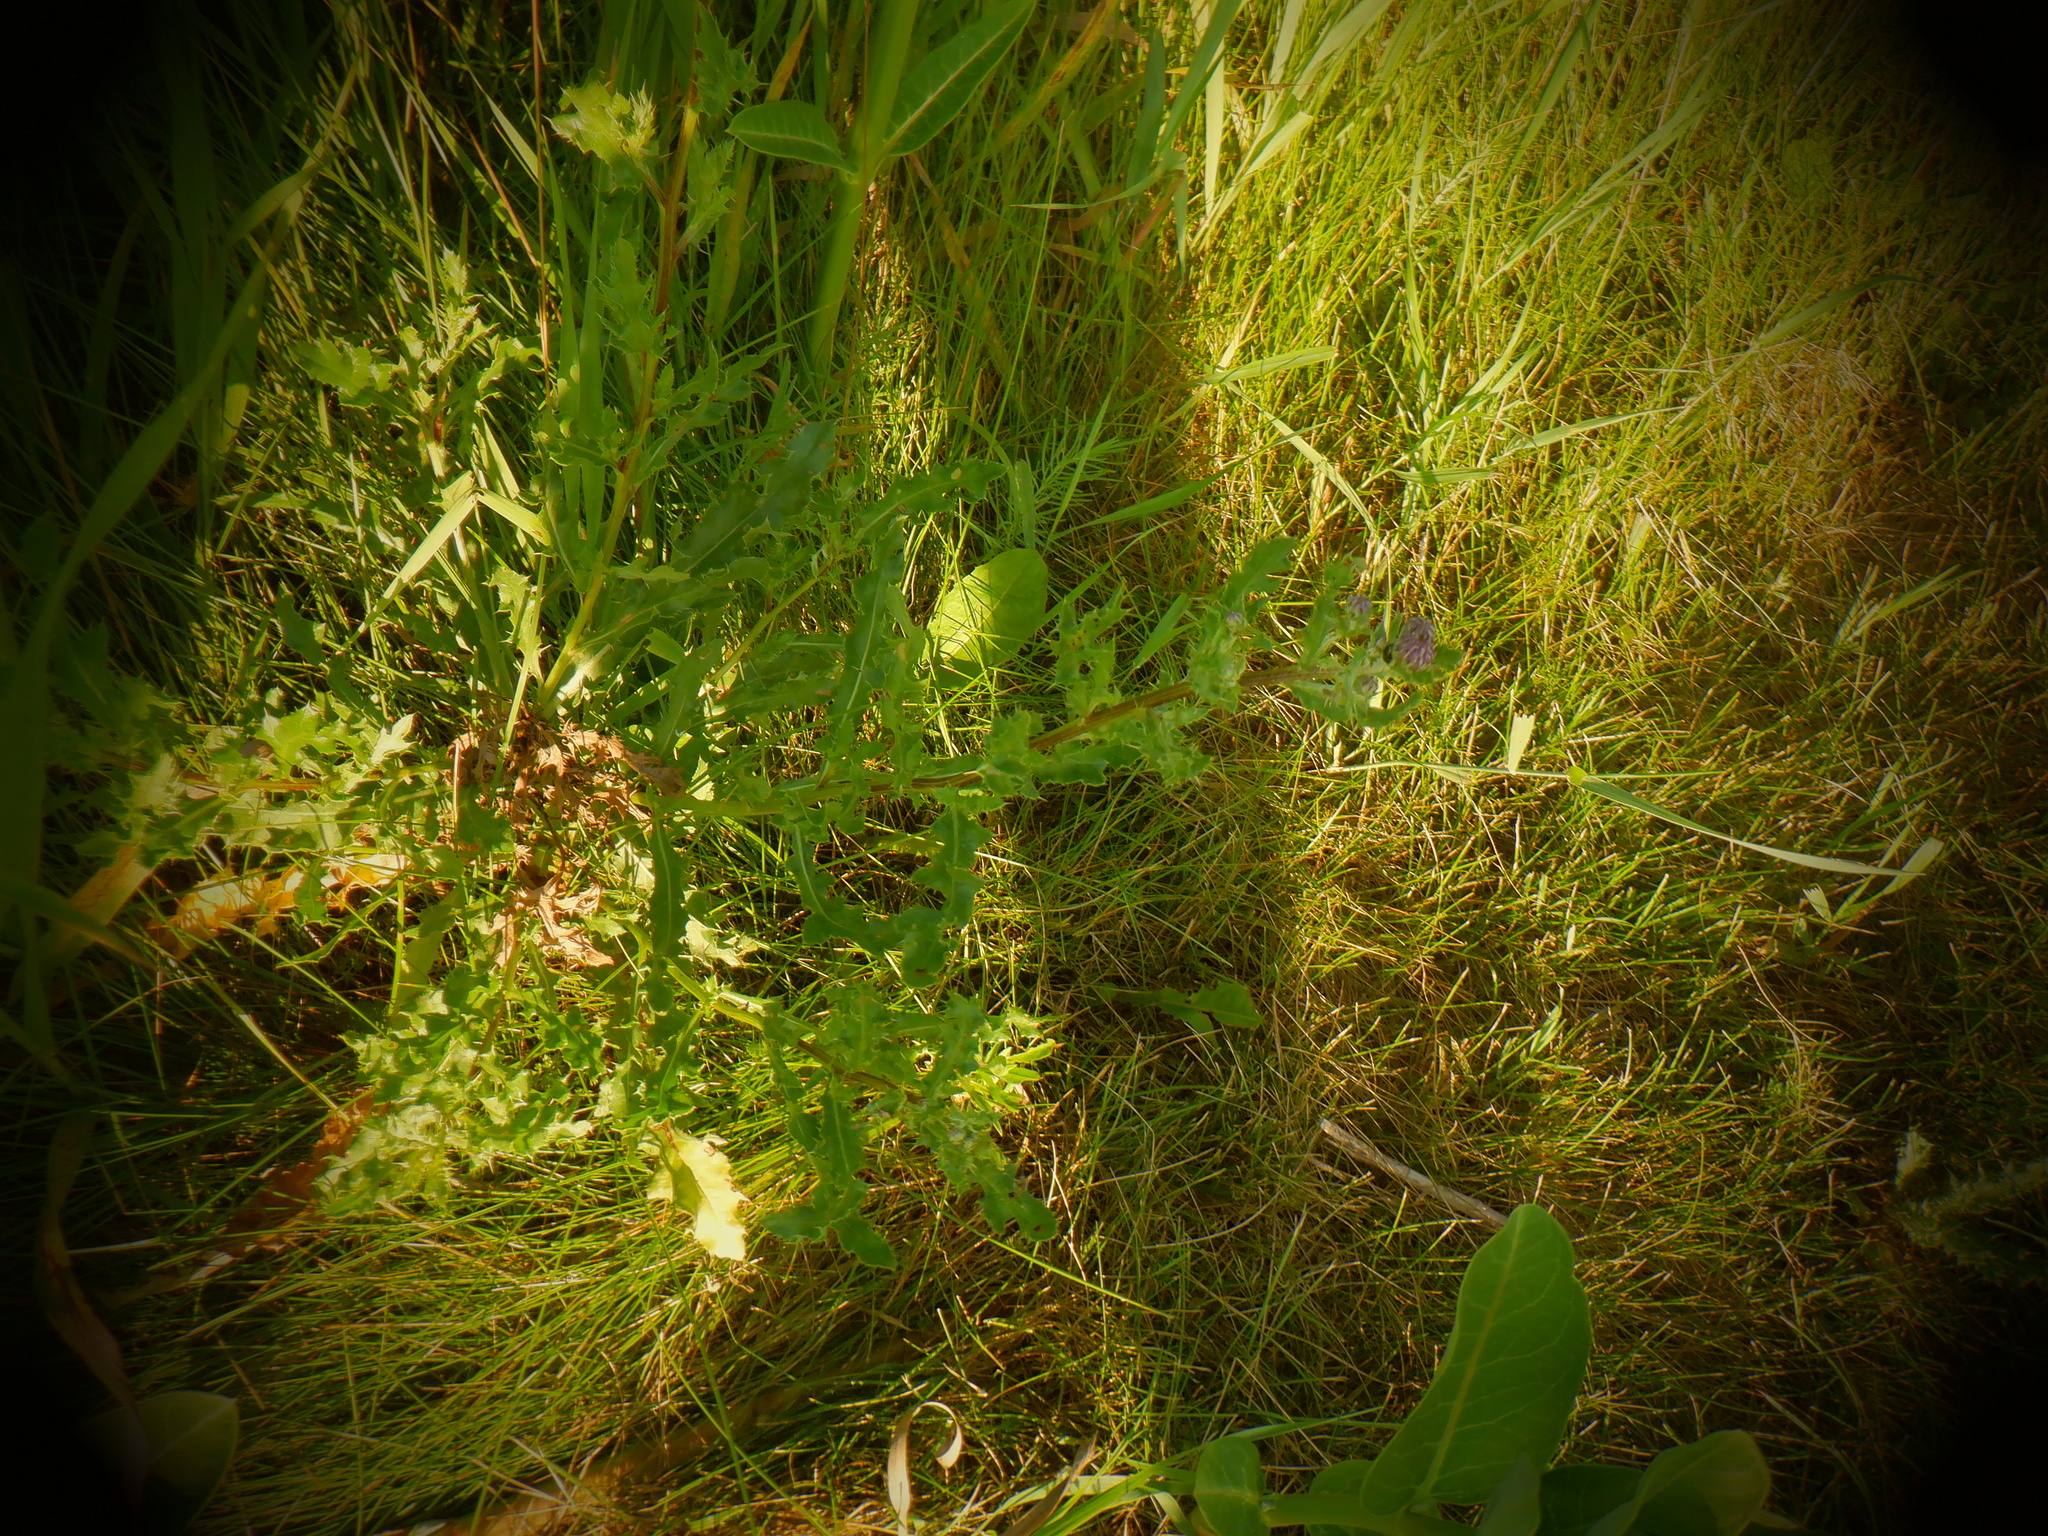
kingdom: Plantae
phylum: Tracheophyta
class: Magnoliopsida
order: Asterales
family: Asteraceae
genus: Cirsium
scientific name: Cirsium arvense
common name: Creeping thistle
